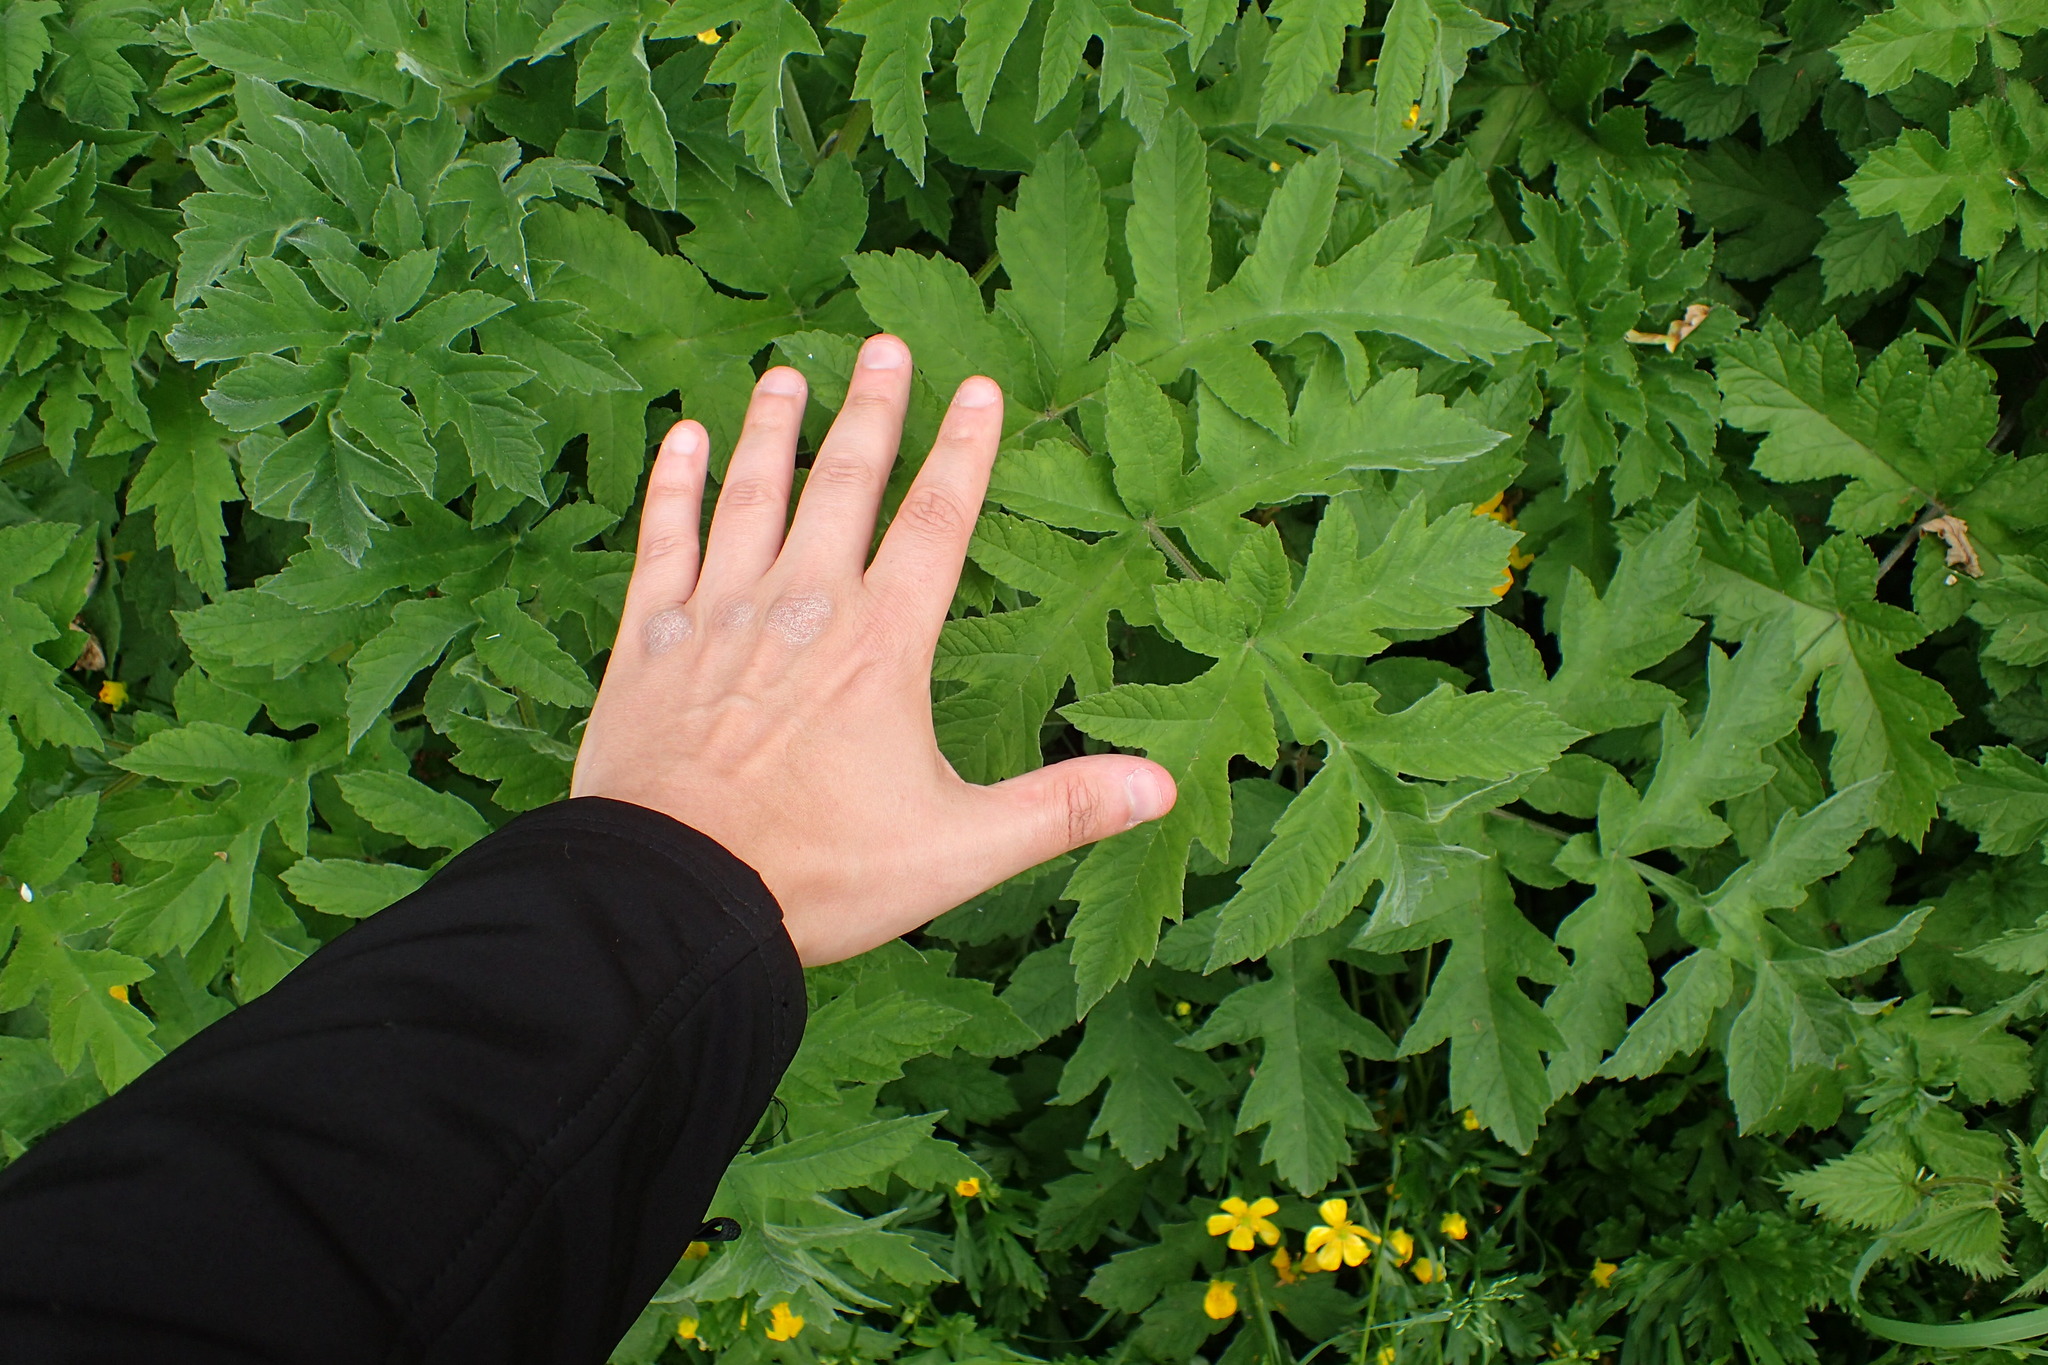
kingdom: Plantae
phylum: Tracheophyta
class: Magnoliopsida
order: Apiales
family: Apiaceae
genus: Heracleum
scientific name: Heracleum sphondylium
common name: Hogweed
